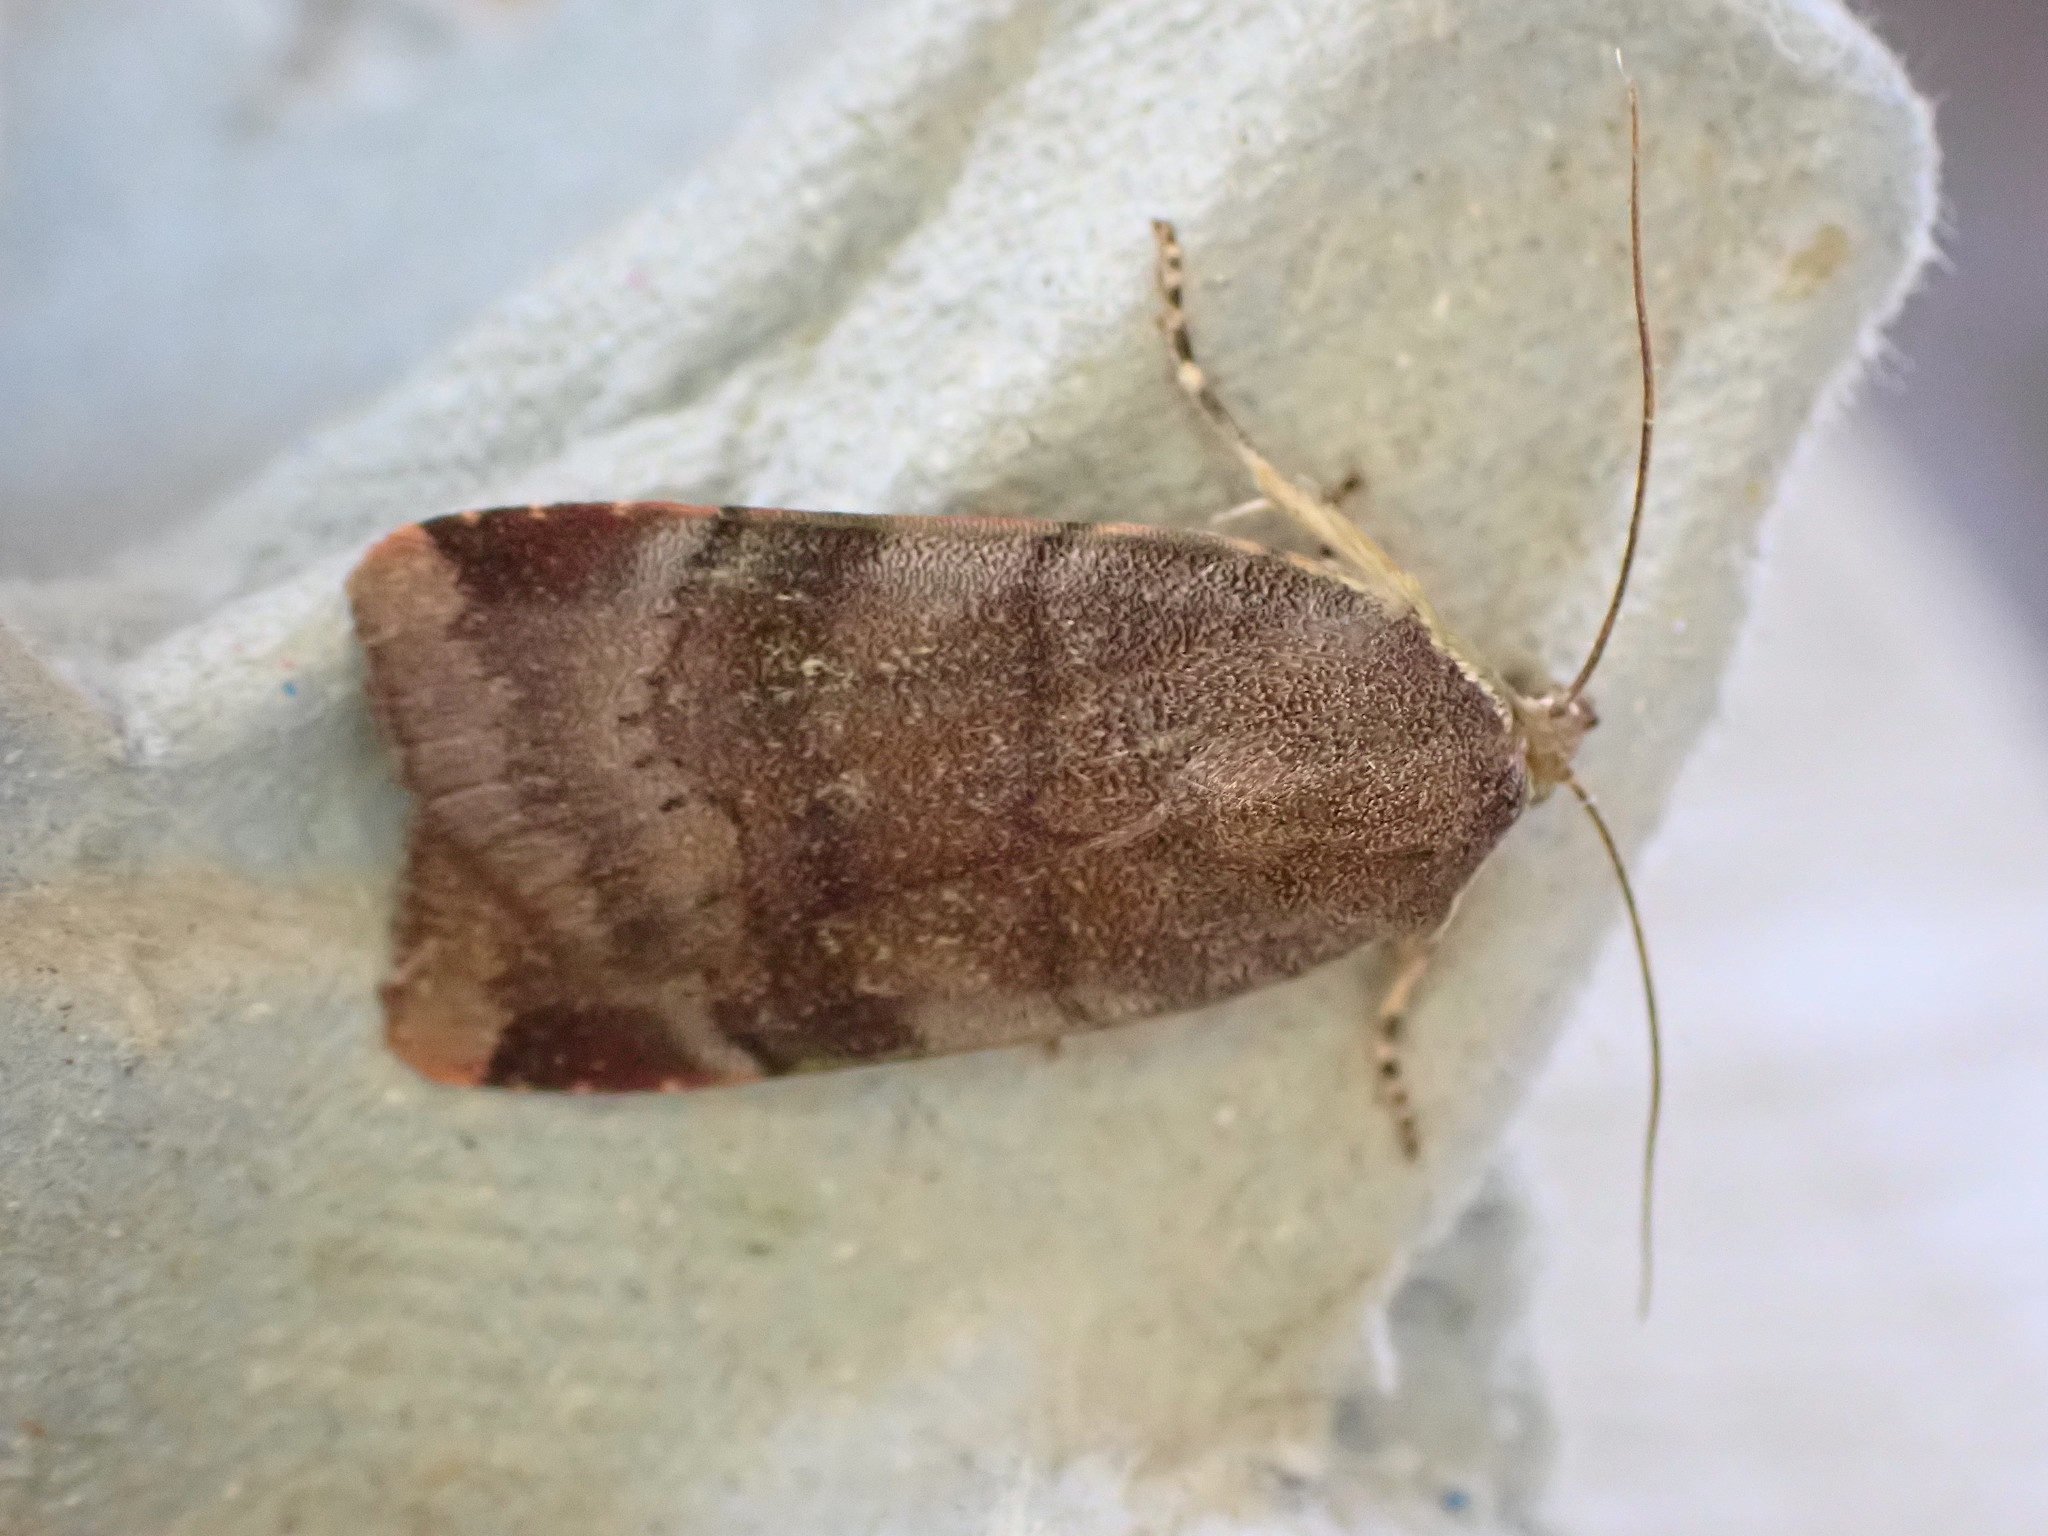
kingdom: Animalia
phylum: Arthropoda
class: Insecta
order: Lepidoptera
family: Noctuidae
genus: Noctua
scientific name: Noctua janthe
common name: Lesser broad-bordered yellow underwing
